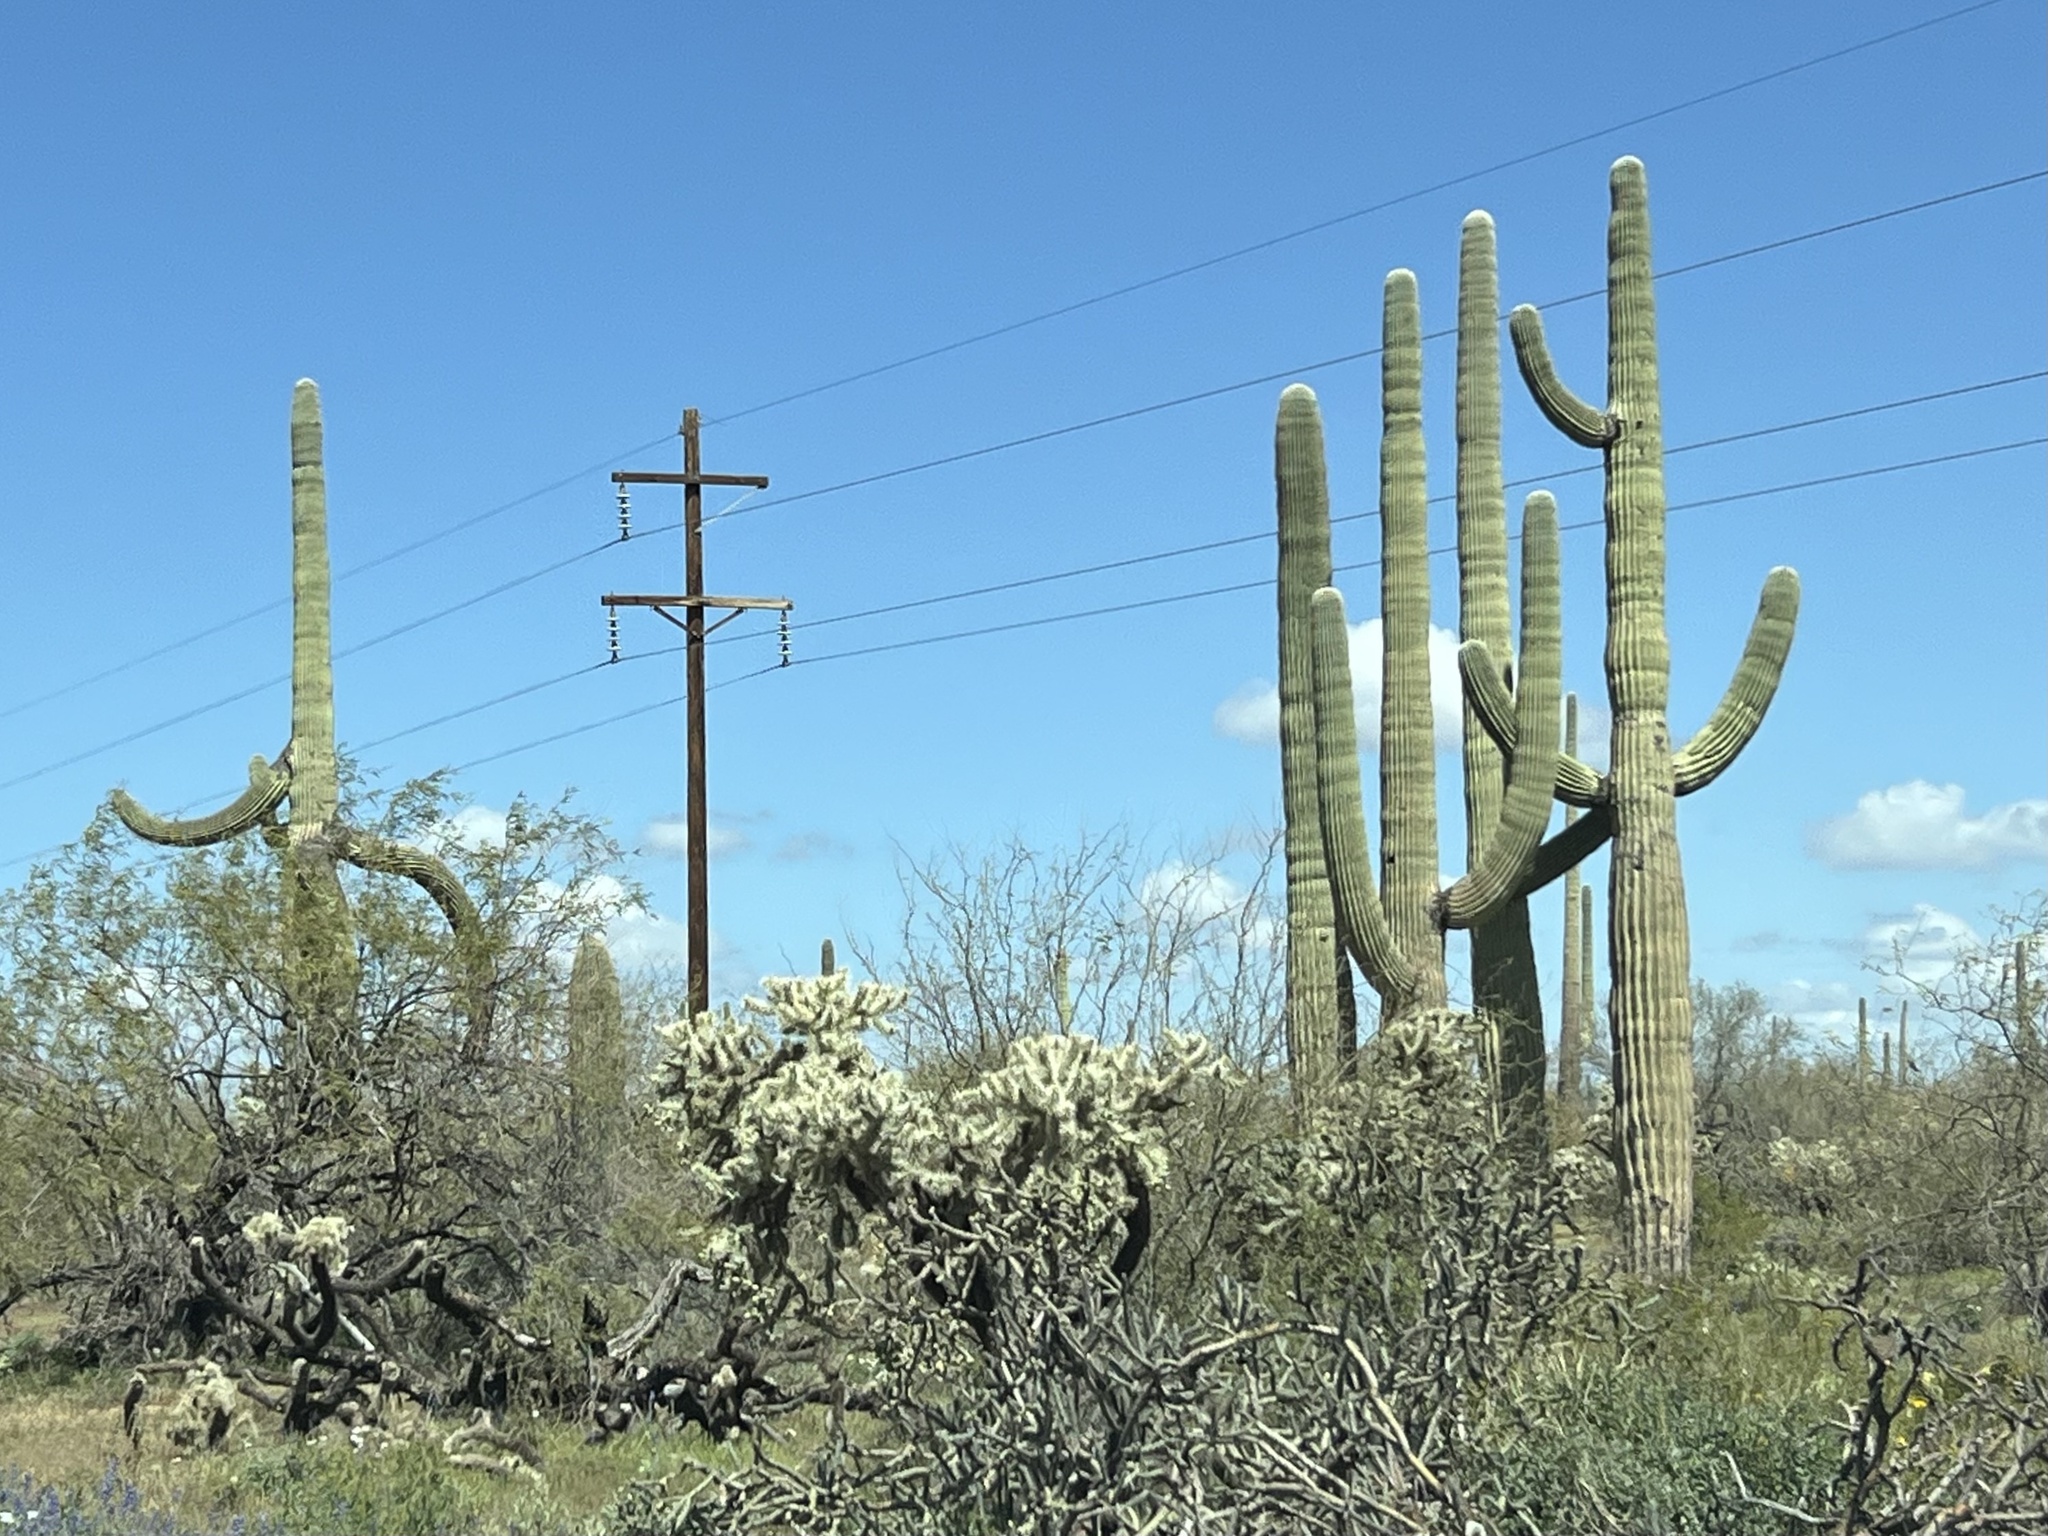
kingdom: Plantae
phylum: Tracheophyta
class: Magnoliopsida
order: Caryophyllales
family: Cactaceae
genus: Carnegiea
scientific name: Carnegiea gigantea
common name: Saguaro
